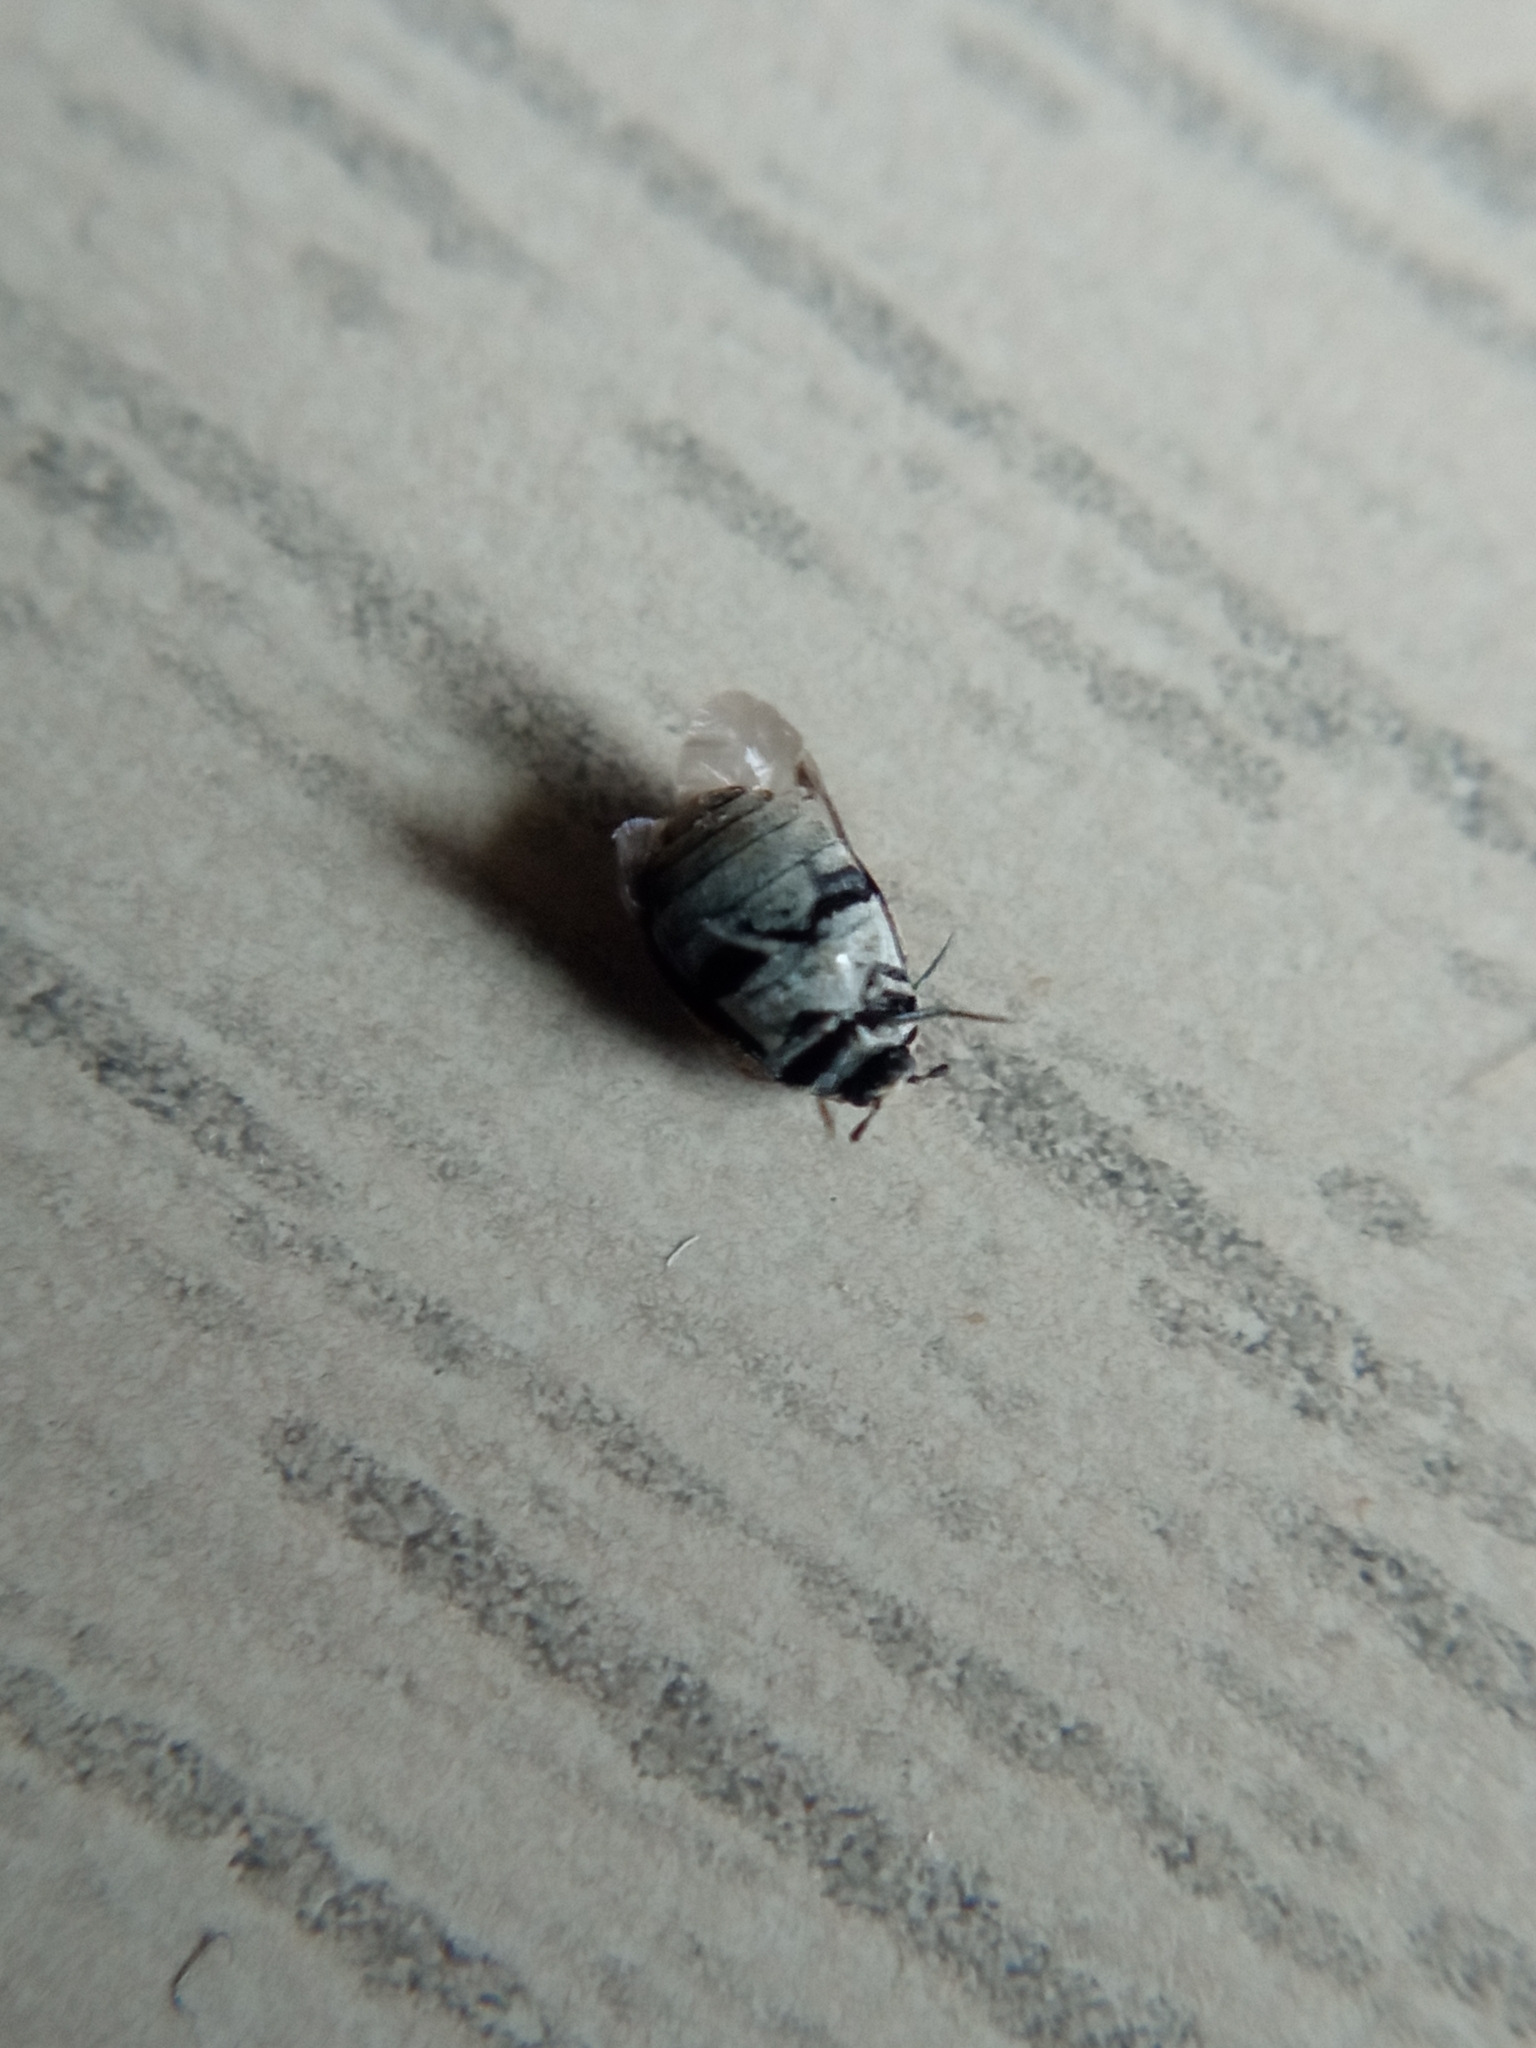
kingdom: Animalia
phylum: Arthropoda
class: Insecta
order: Coleoptera
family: Dermestidae
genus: Anthrenus
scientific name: Anthrenus verbasci
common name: Varied carpet beetle
